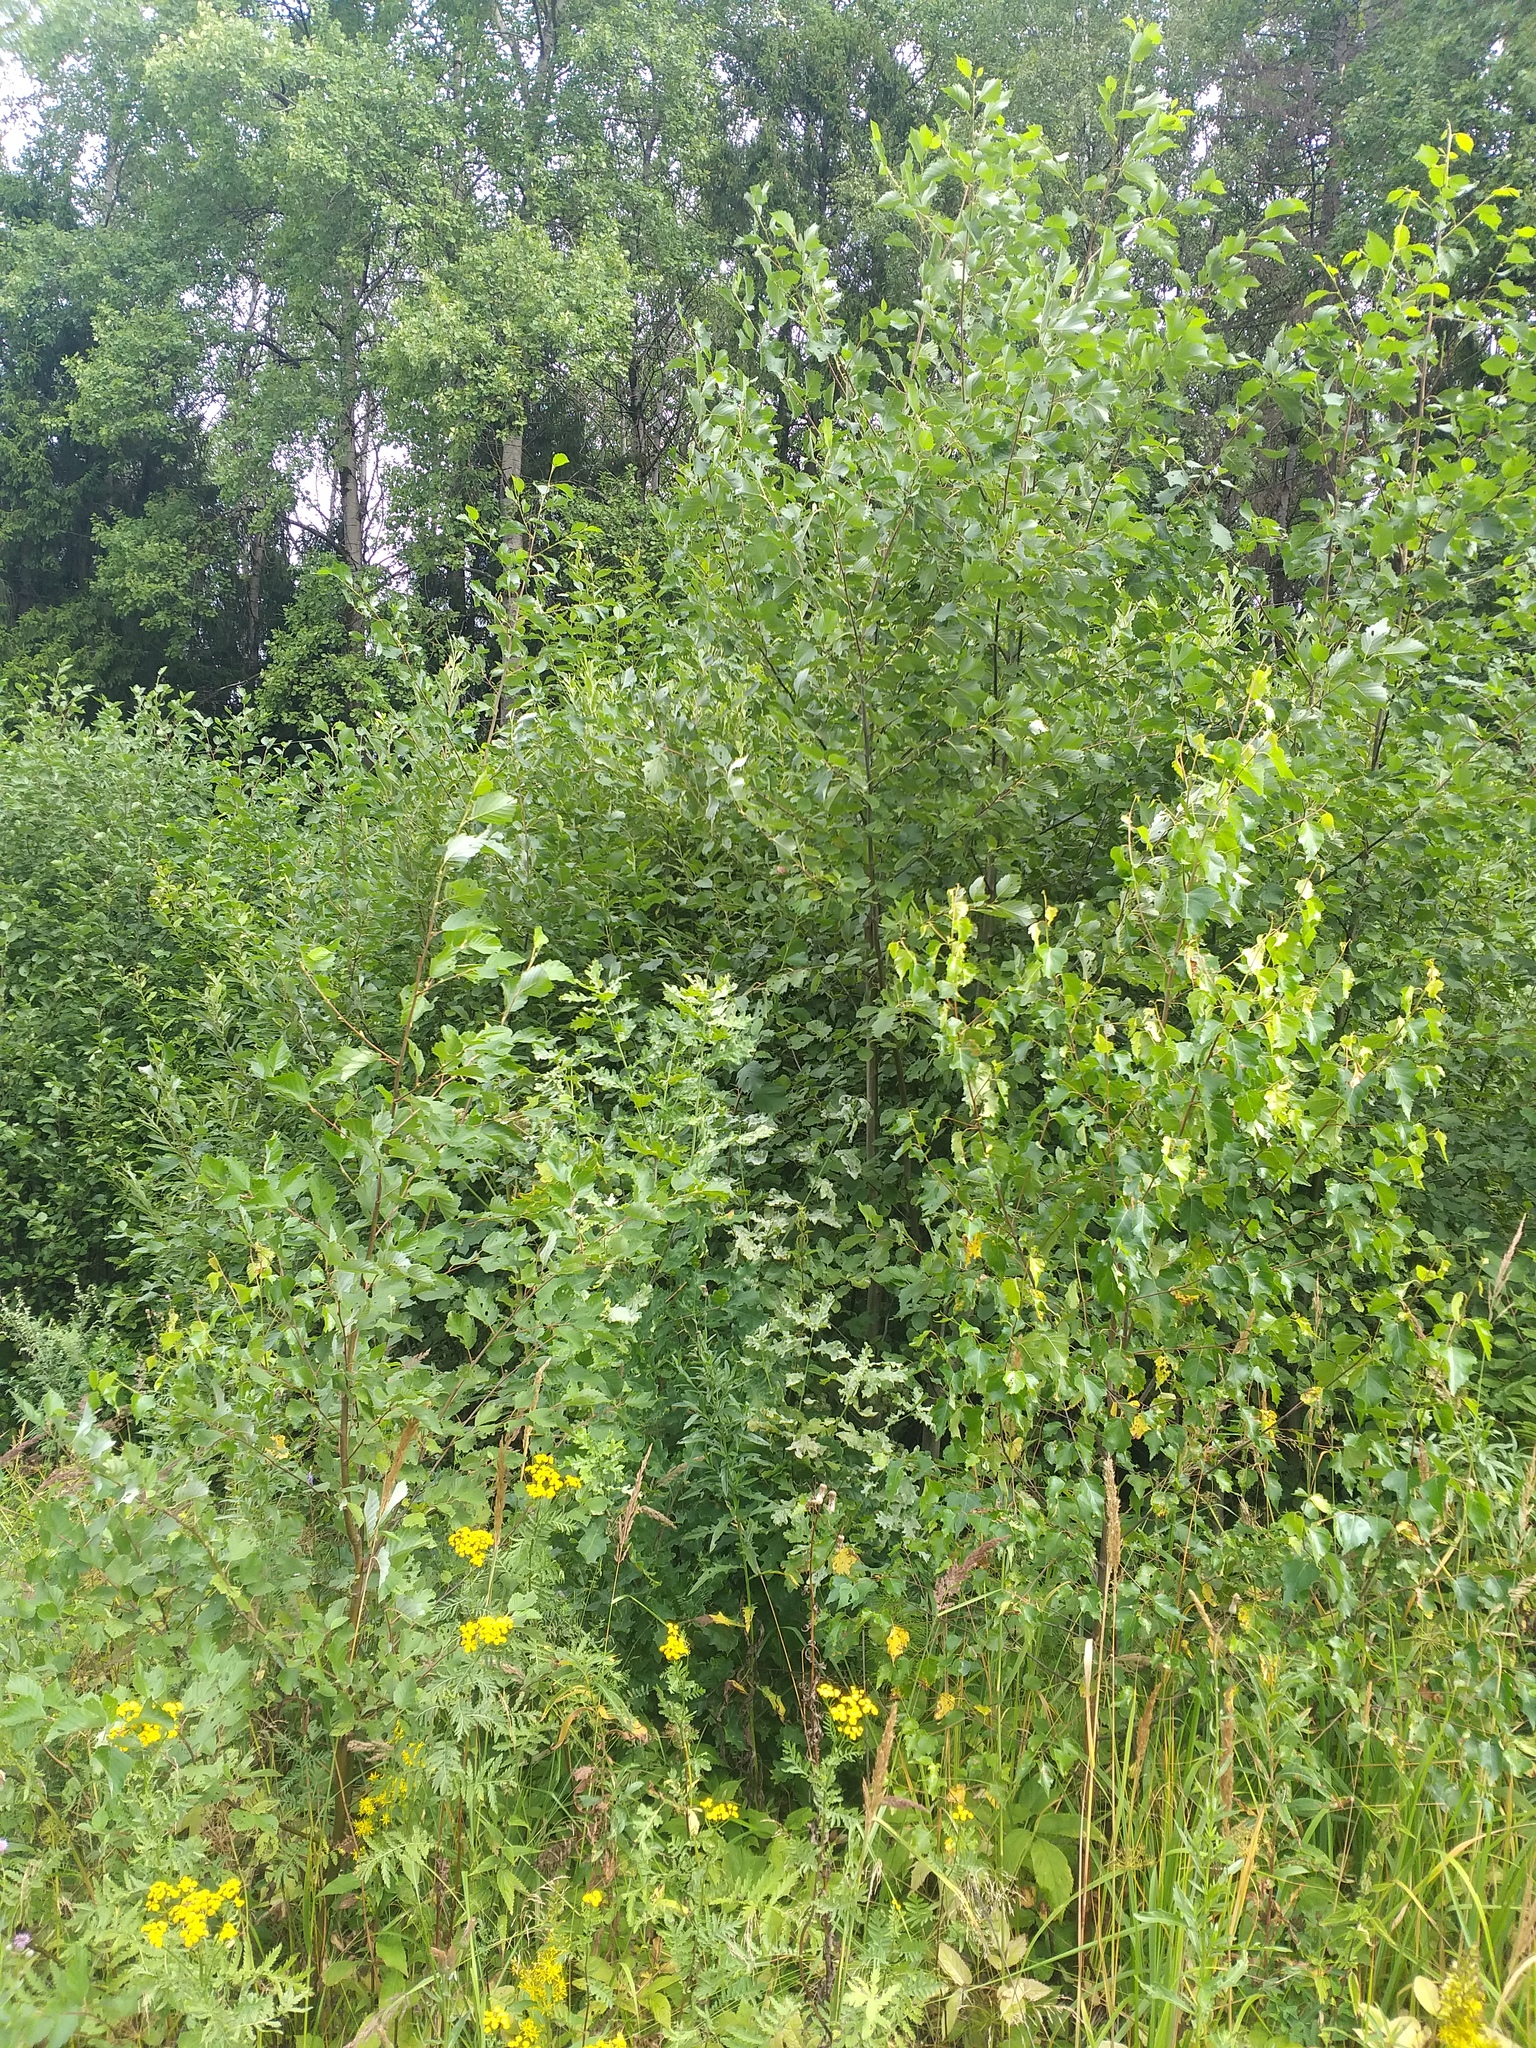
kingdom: Plantae
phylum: Tracheophyta
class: Magnoliopsida
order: Fagales
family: Betulaceae
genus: Alnus
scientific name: Alnus incana
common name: Grey alder
